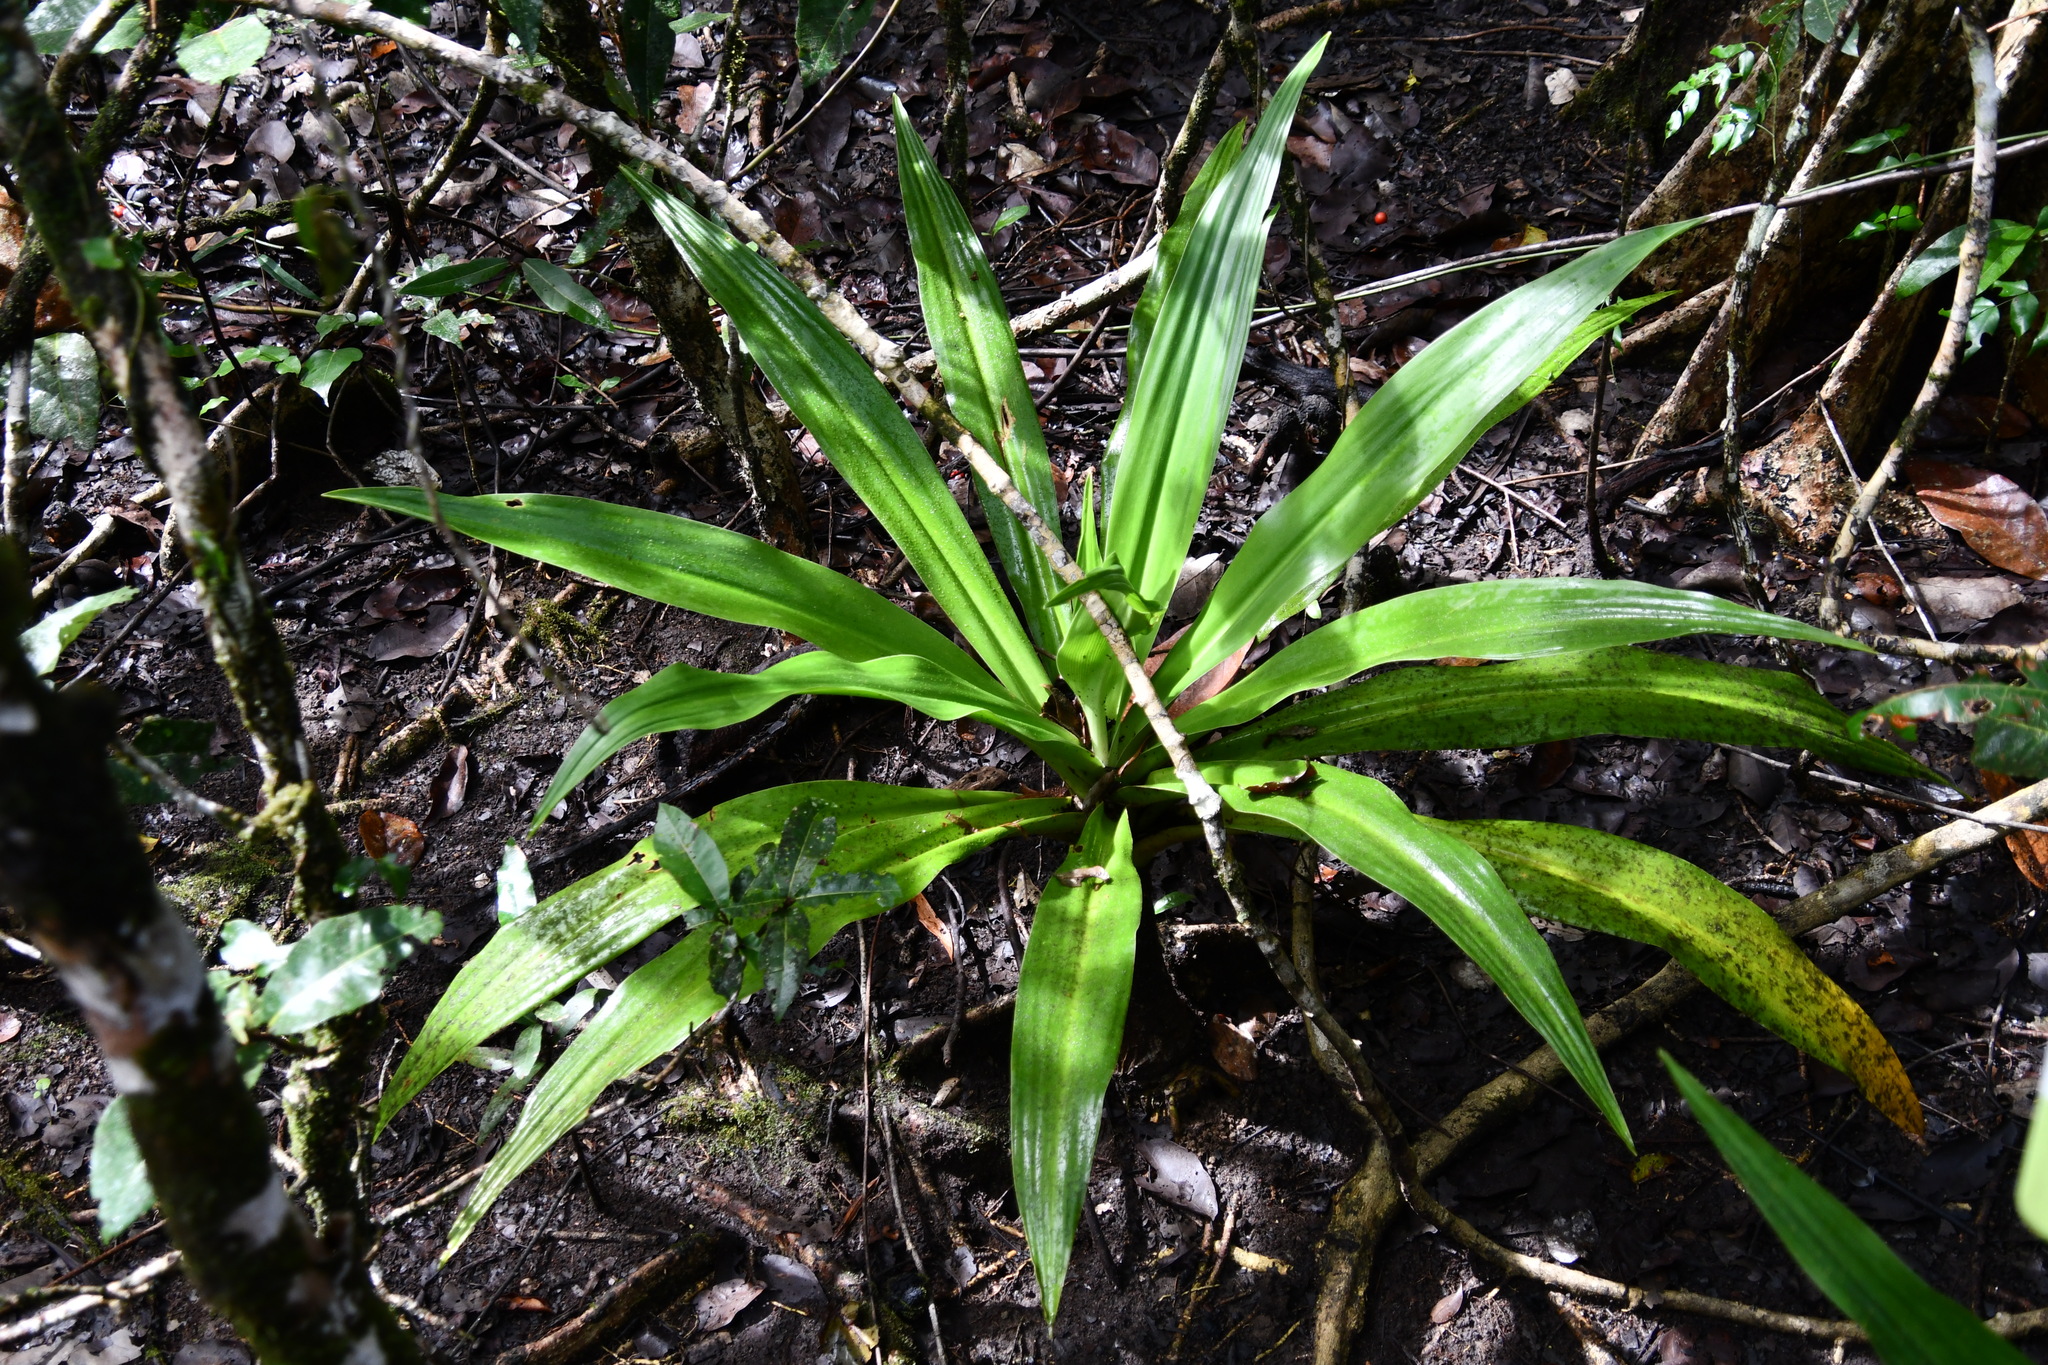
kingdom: Plantae
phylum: Tracheophyta
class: Liliopsida
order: Asparagales
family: Amaryllidaceae
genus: Crinum
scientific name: Crinum pedunculatum
